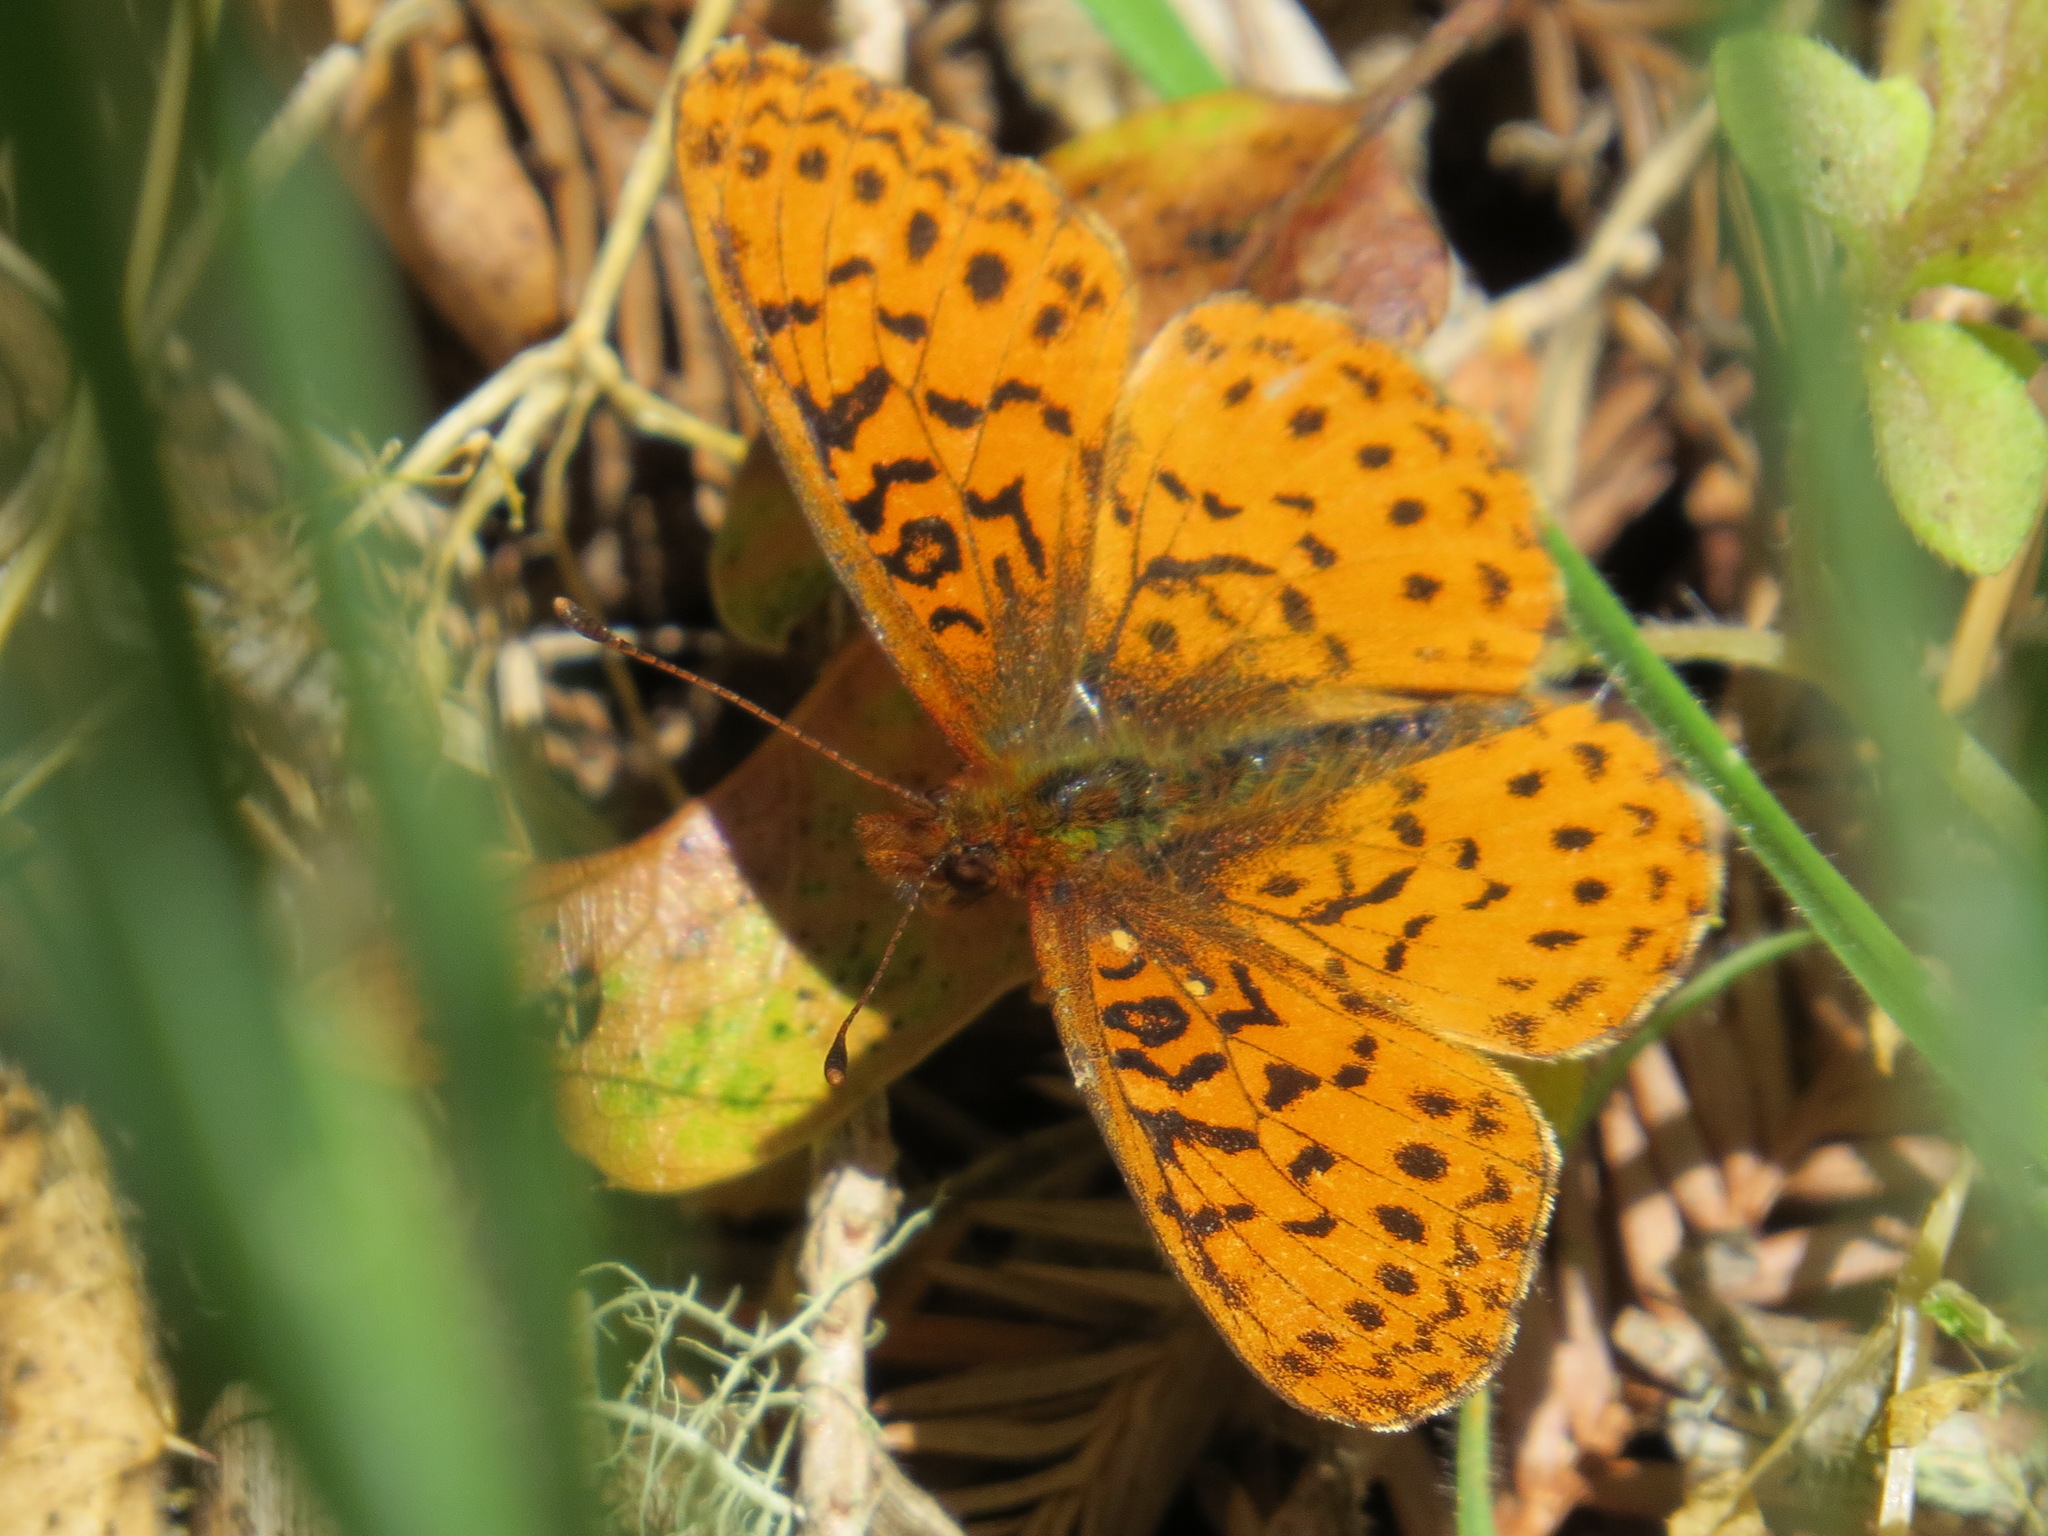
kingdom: Animalia
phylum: Arthropoda
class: Insecta
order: Lepidoptera
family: Nymphalidae
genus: Boloria
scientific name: Boloria epithore
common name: Pacific fritillary
